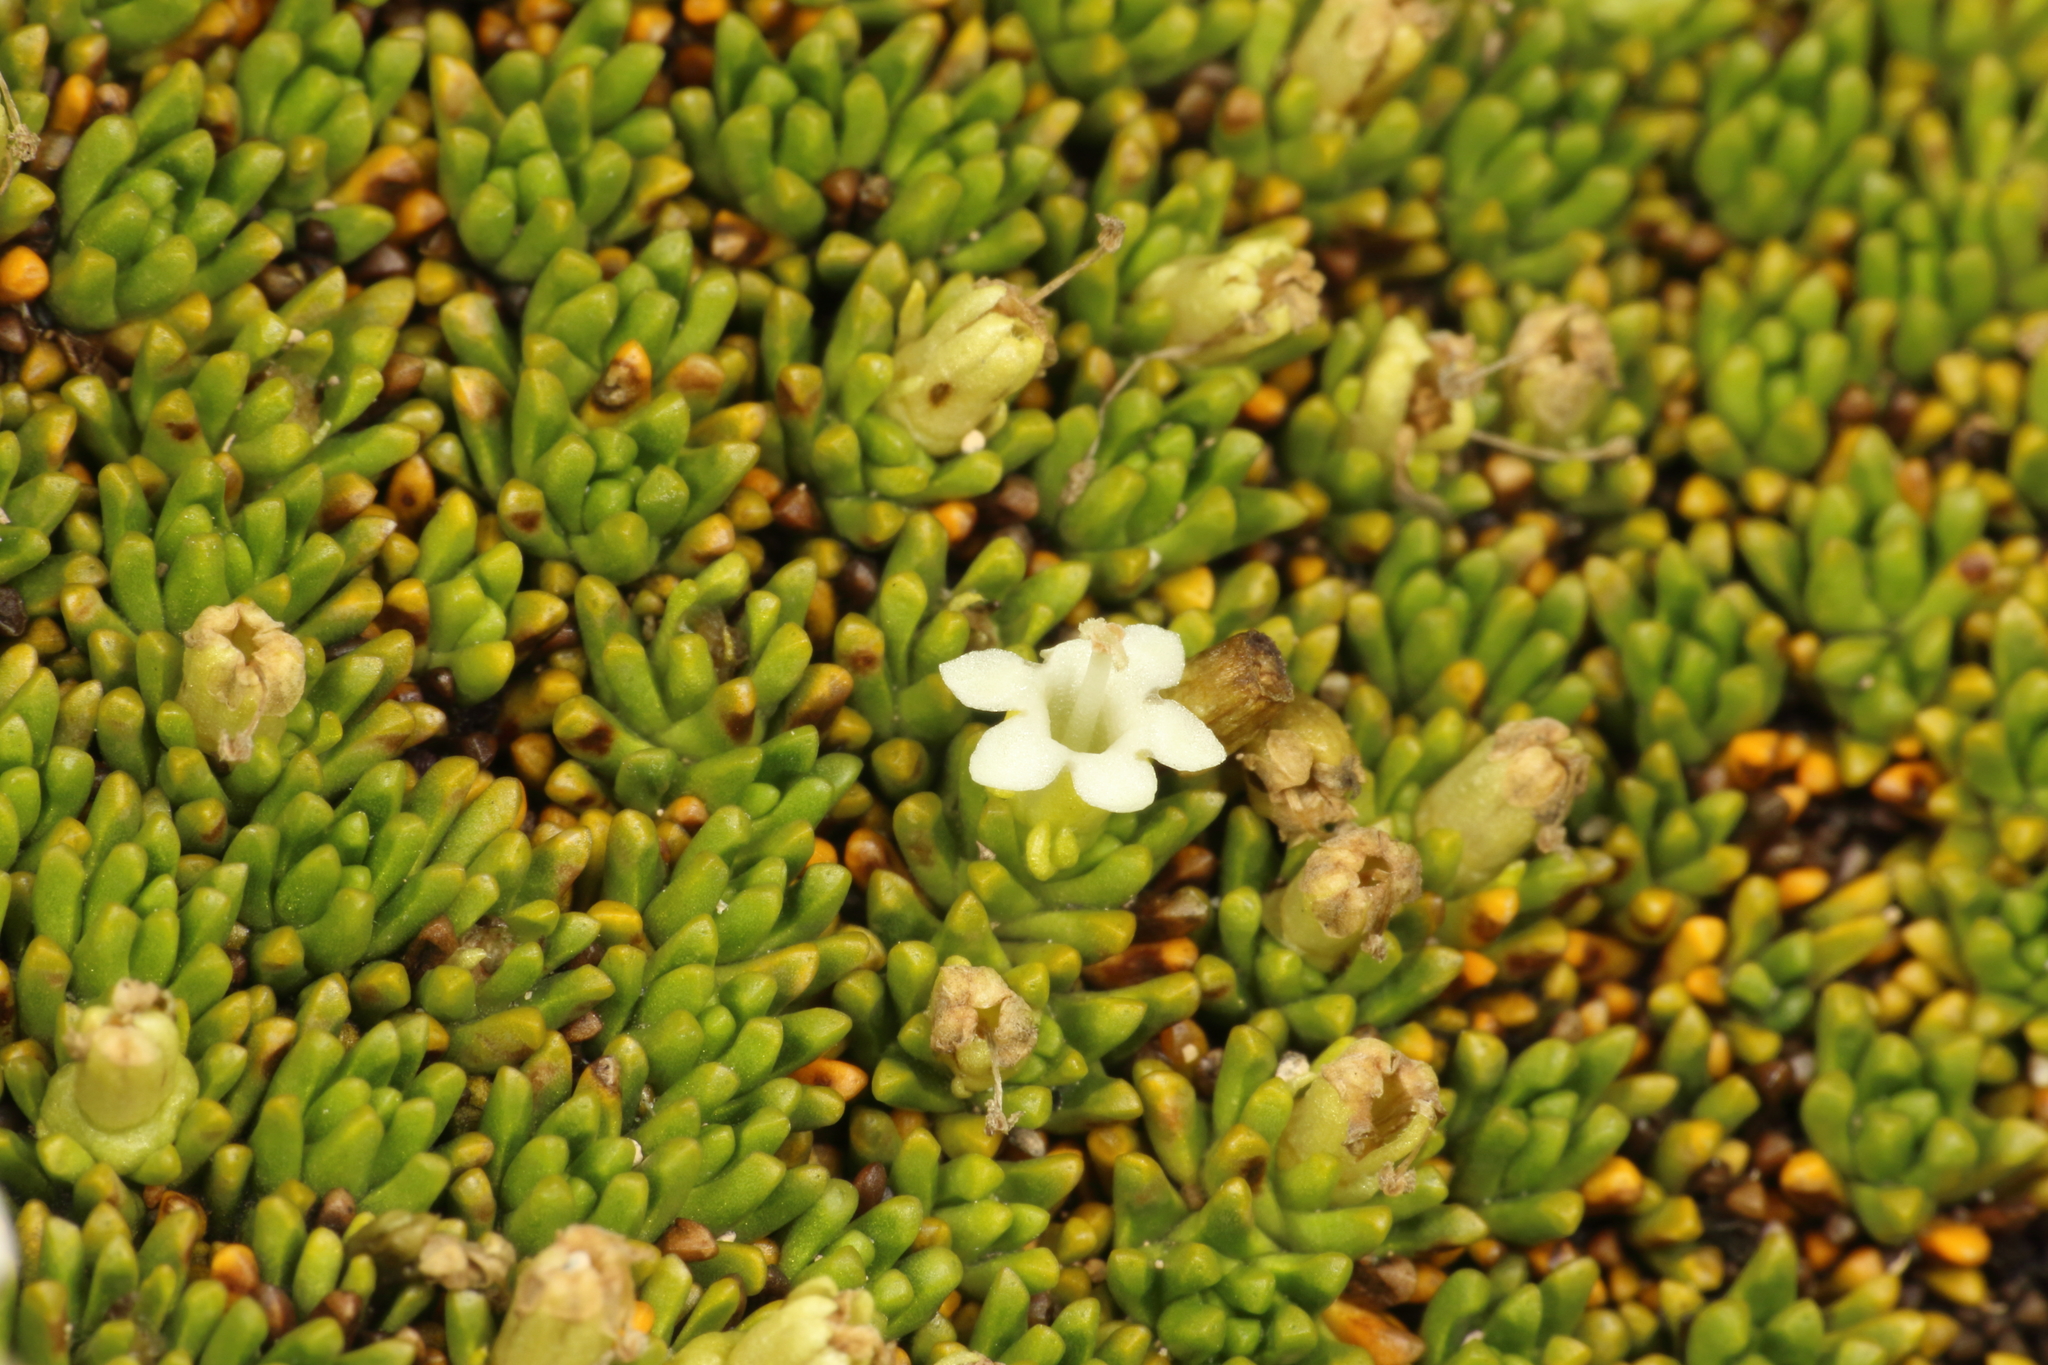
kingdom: Plantae
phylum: Tracheophyta
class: Magnoliopsida
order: Asterales
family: Stylidiaceae
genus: Phyllachne
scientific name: Phyllachne colensoi
